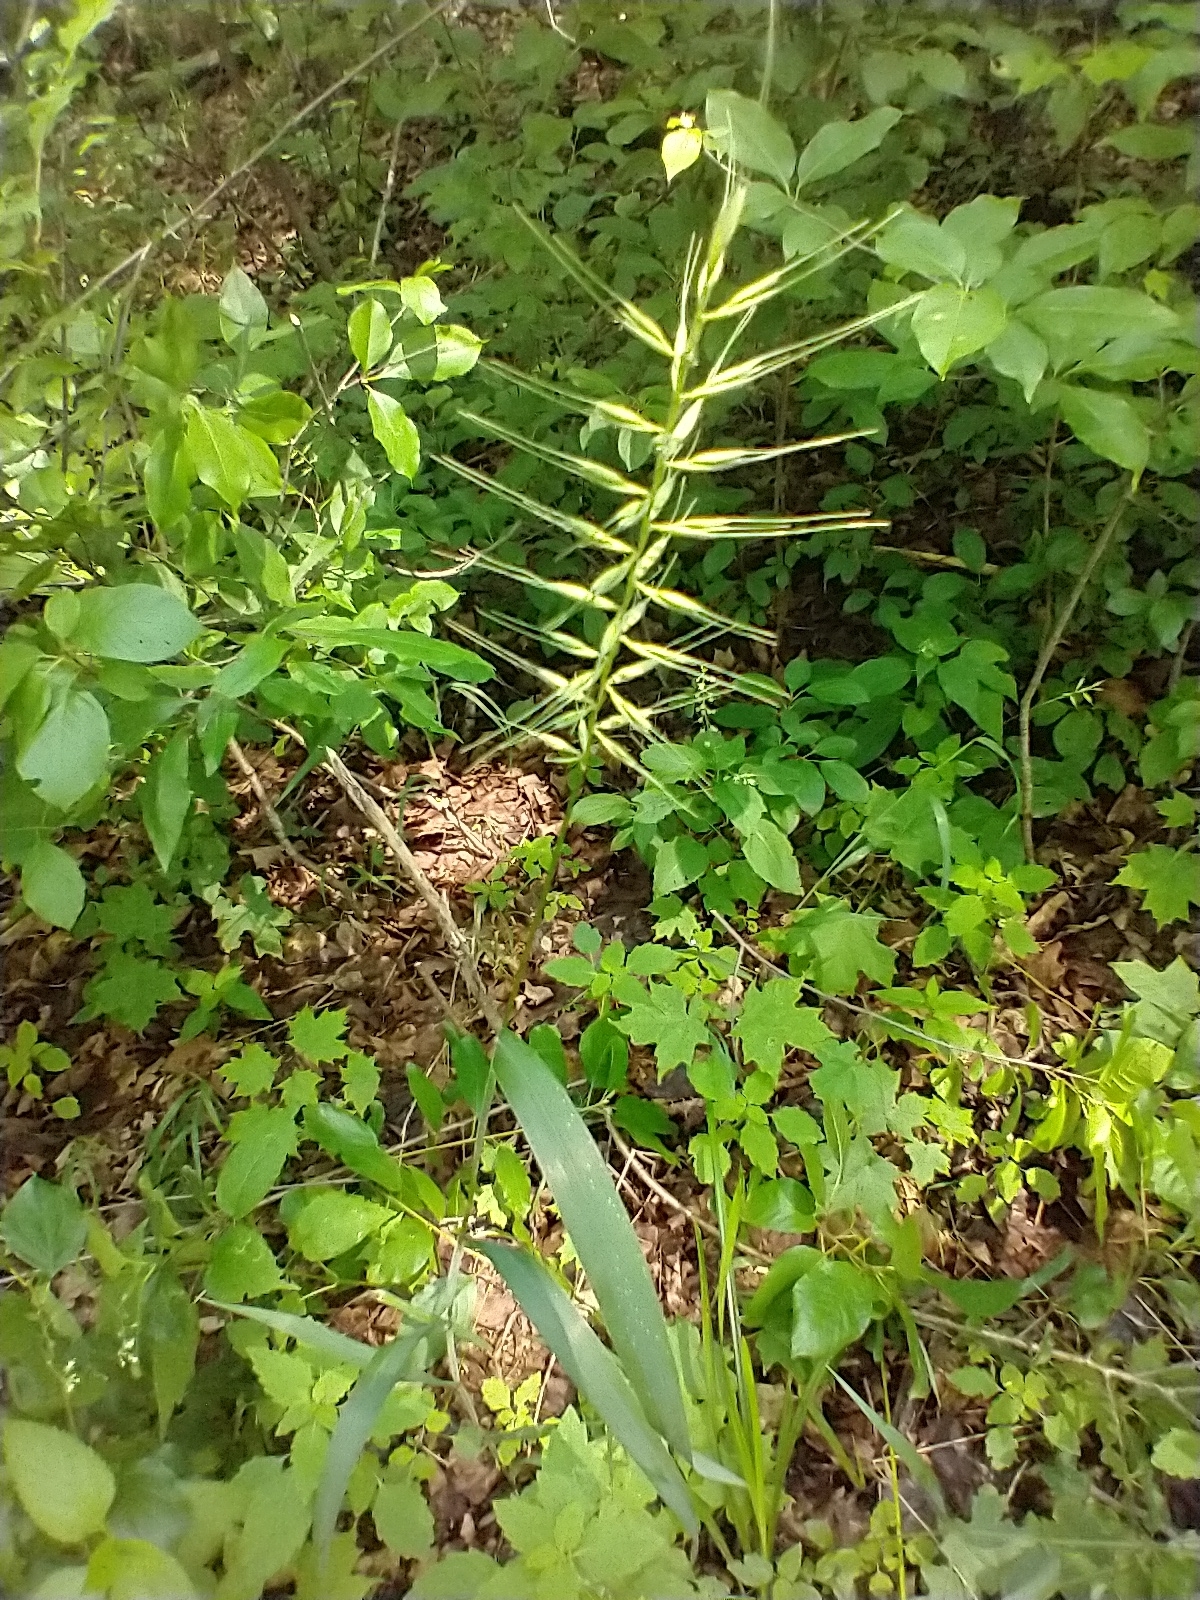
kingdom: Plantae
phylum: Tracheophyta
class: Liliopsida
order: Poales
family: Poaceae
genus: Elymus
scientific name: Elymus hystrix
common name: Bottlebrush grass
